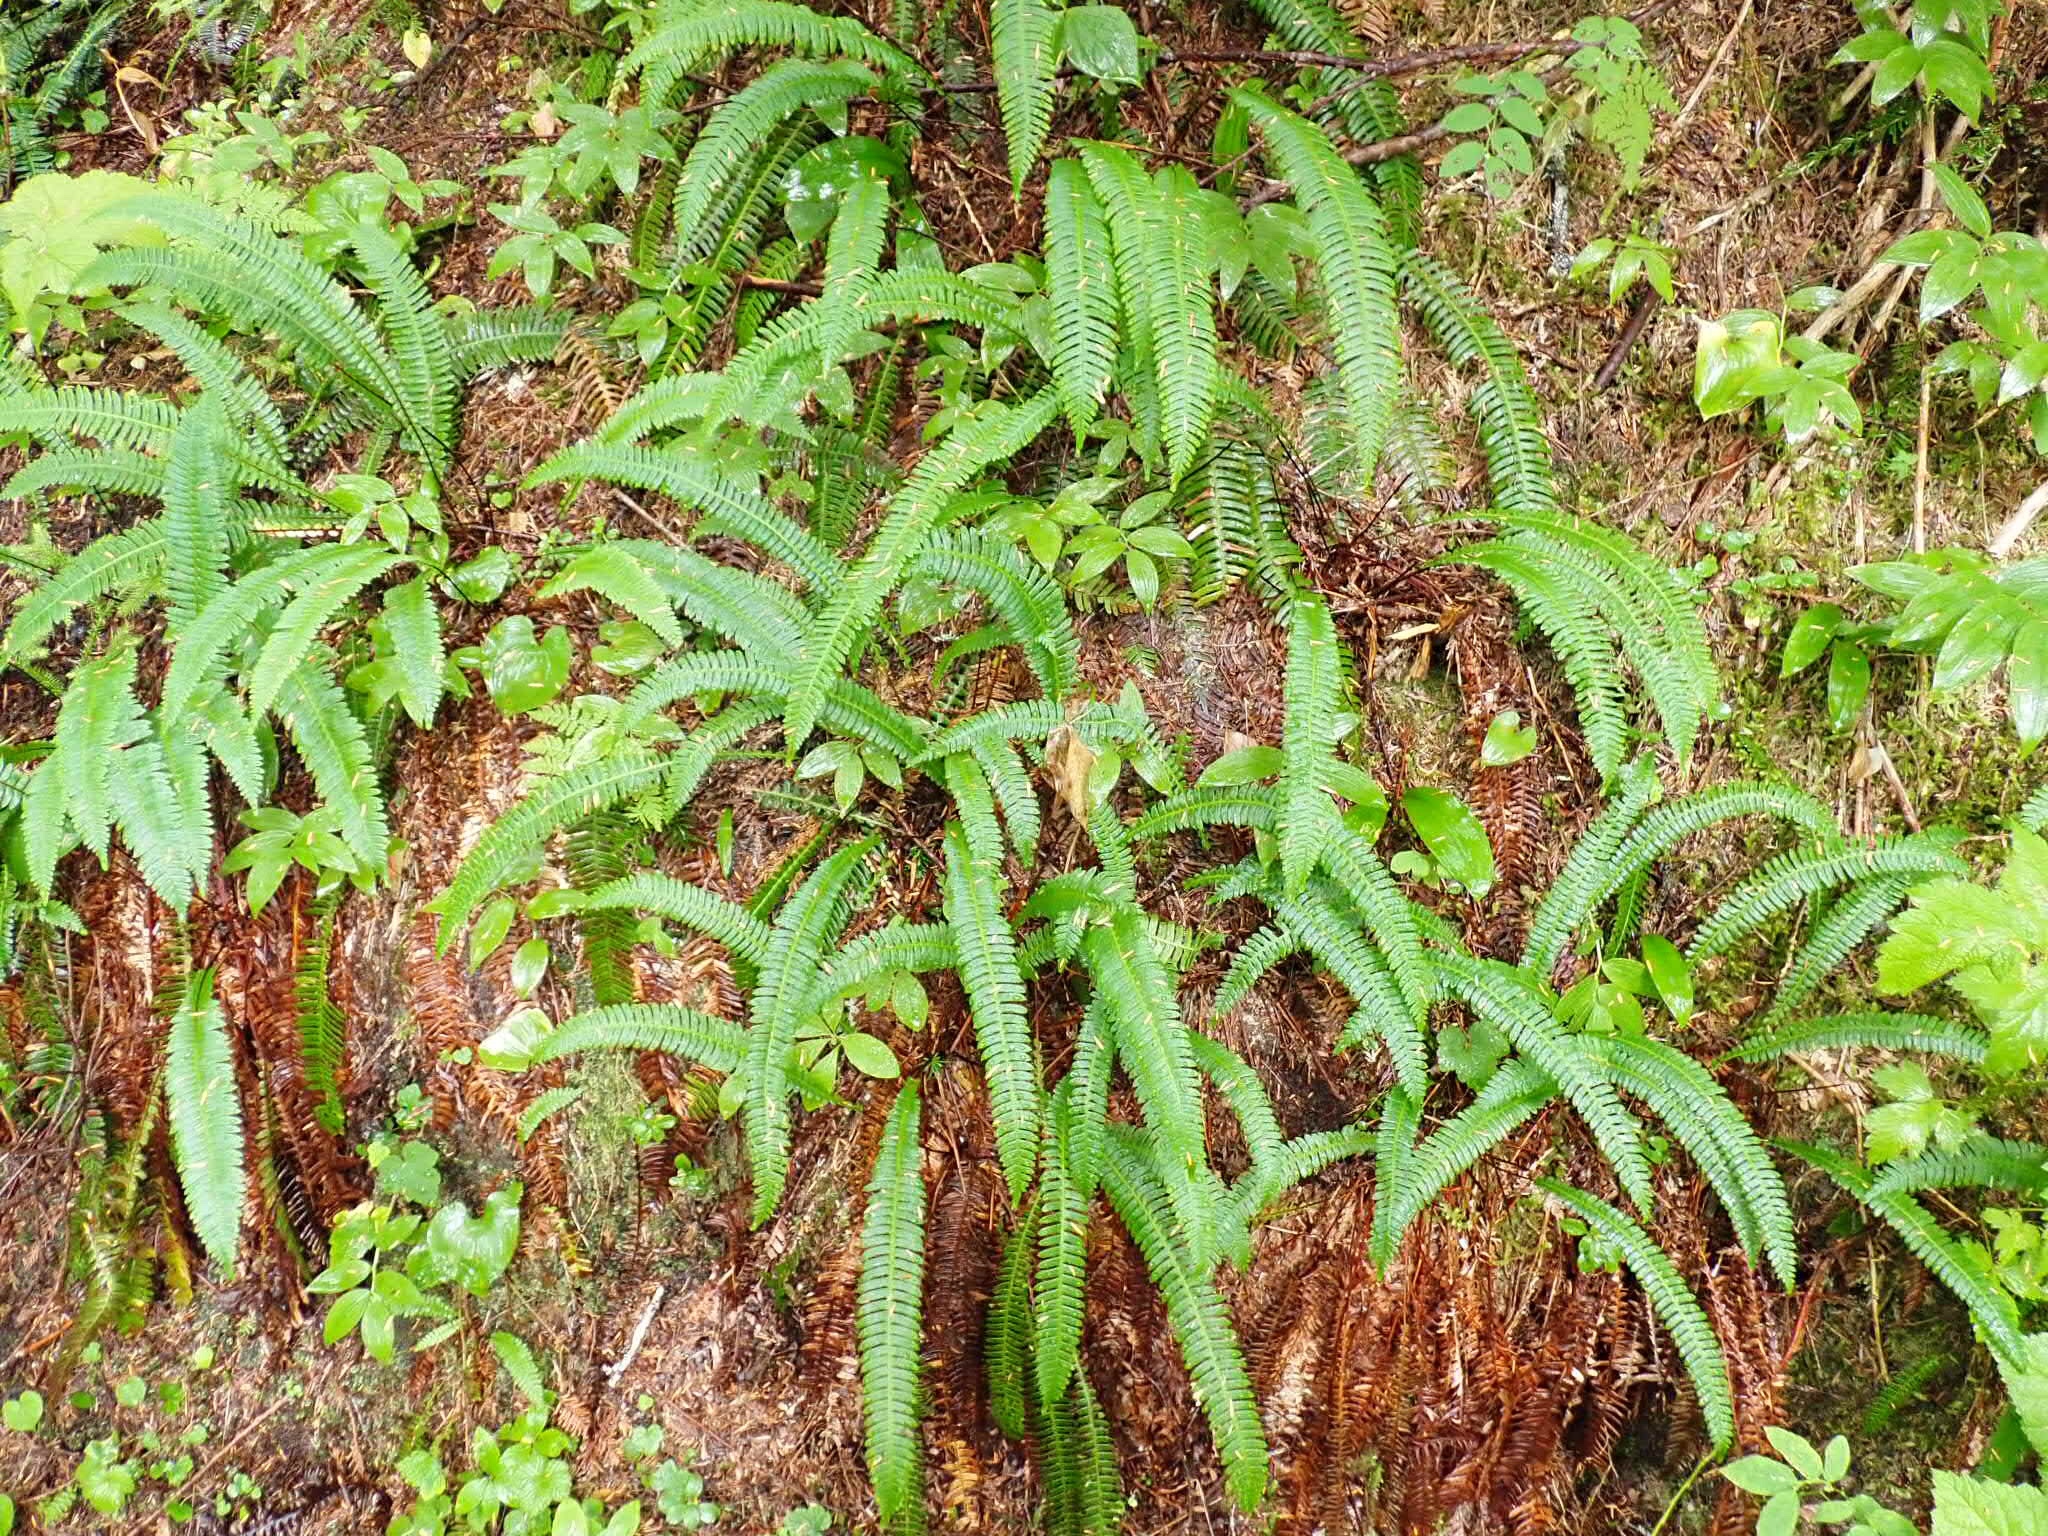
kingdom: Plantae
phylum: Tracheophyta
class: Polypodiopsida
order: Polypodiales
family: Blechnaceae
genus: Struthiopteris
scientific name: Struthiopteris spicant
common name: Deer fern
